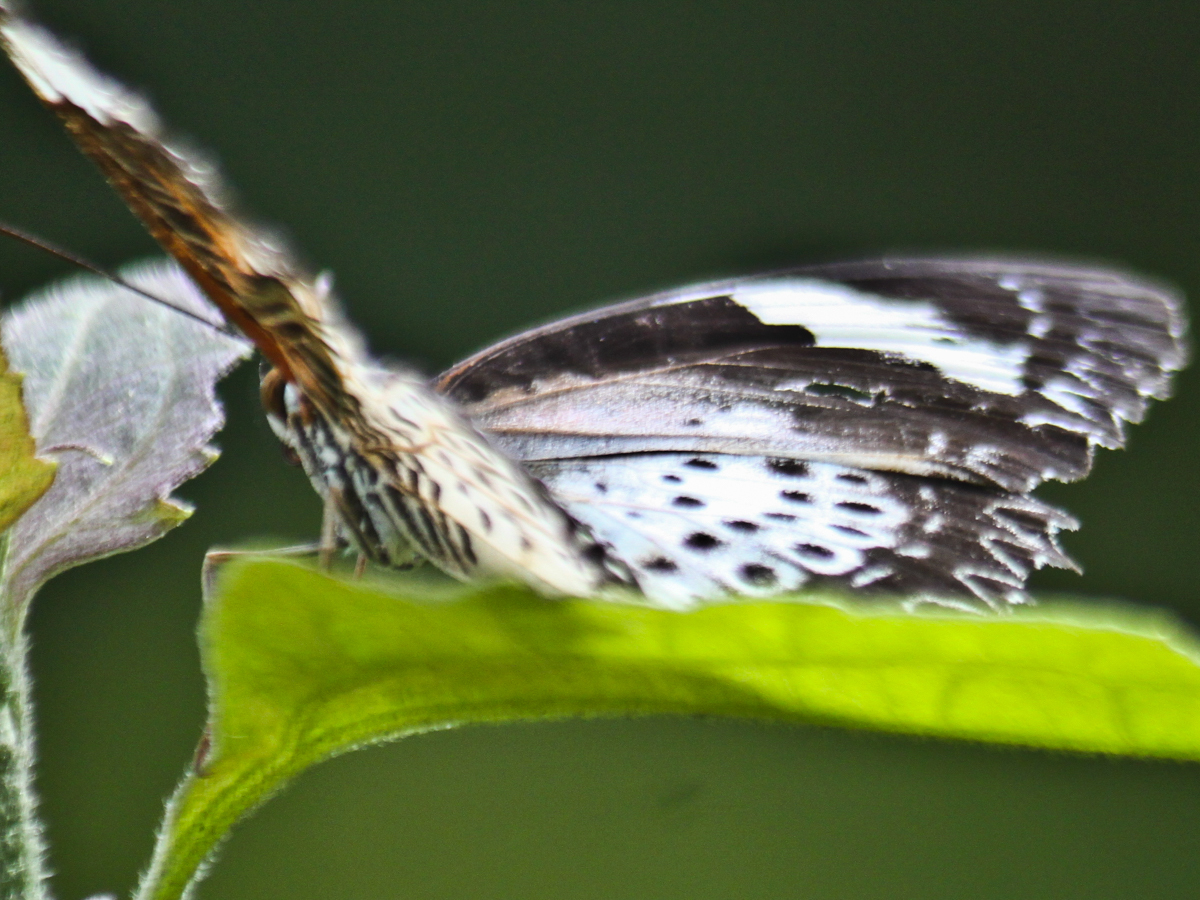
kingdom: Animalia
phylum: Arthropoda
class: Insecta
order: Lepidoptera
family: Nymphalidae
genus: Cethosia
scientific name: Cethosia cyane
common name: Leopard lacewing butterfly
